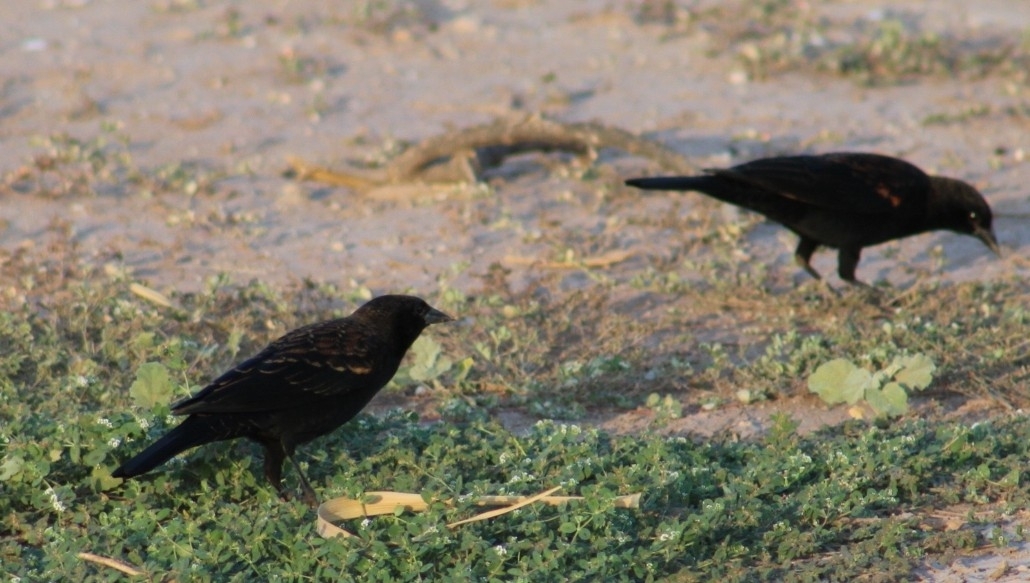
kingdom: Animalia
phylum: Chordata
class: Aves
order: Passeriformes
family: Icteridae
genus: Agelaius
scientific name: Agelaius phoeniceus
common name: Red-winged blackbird
